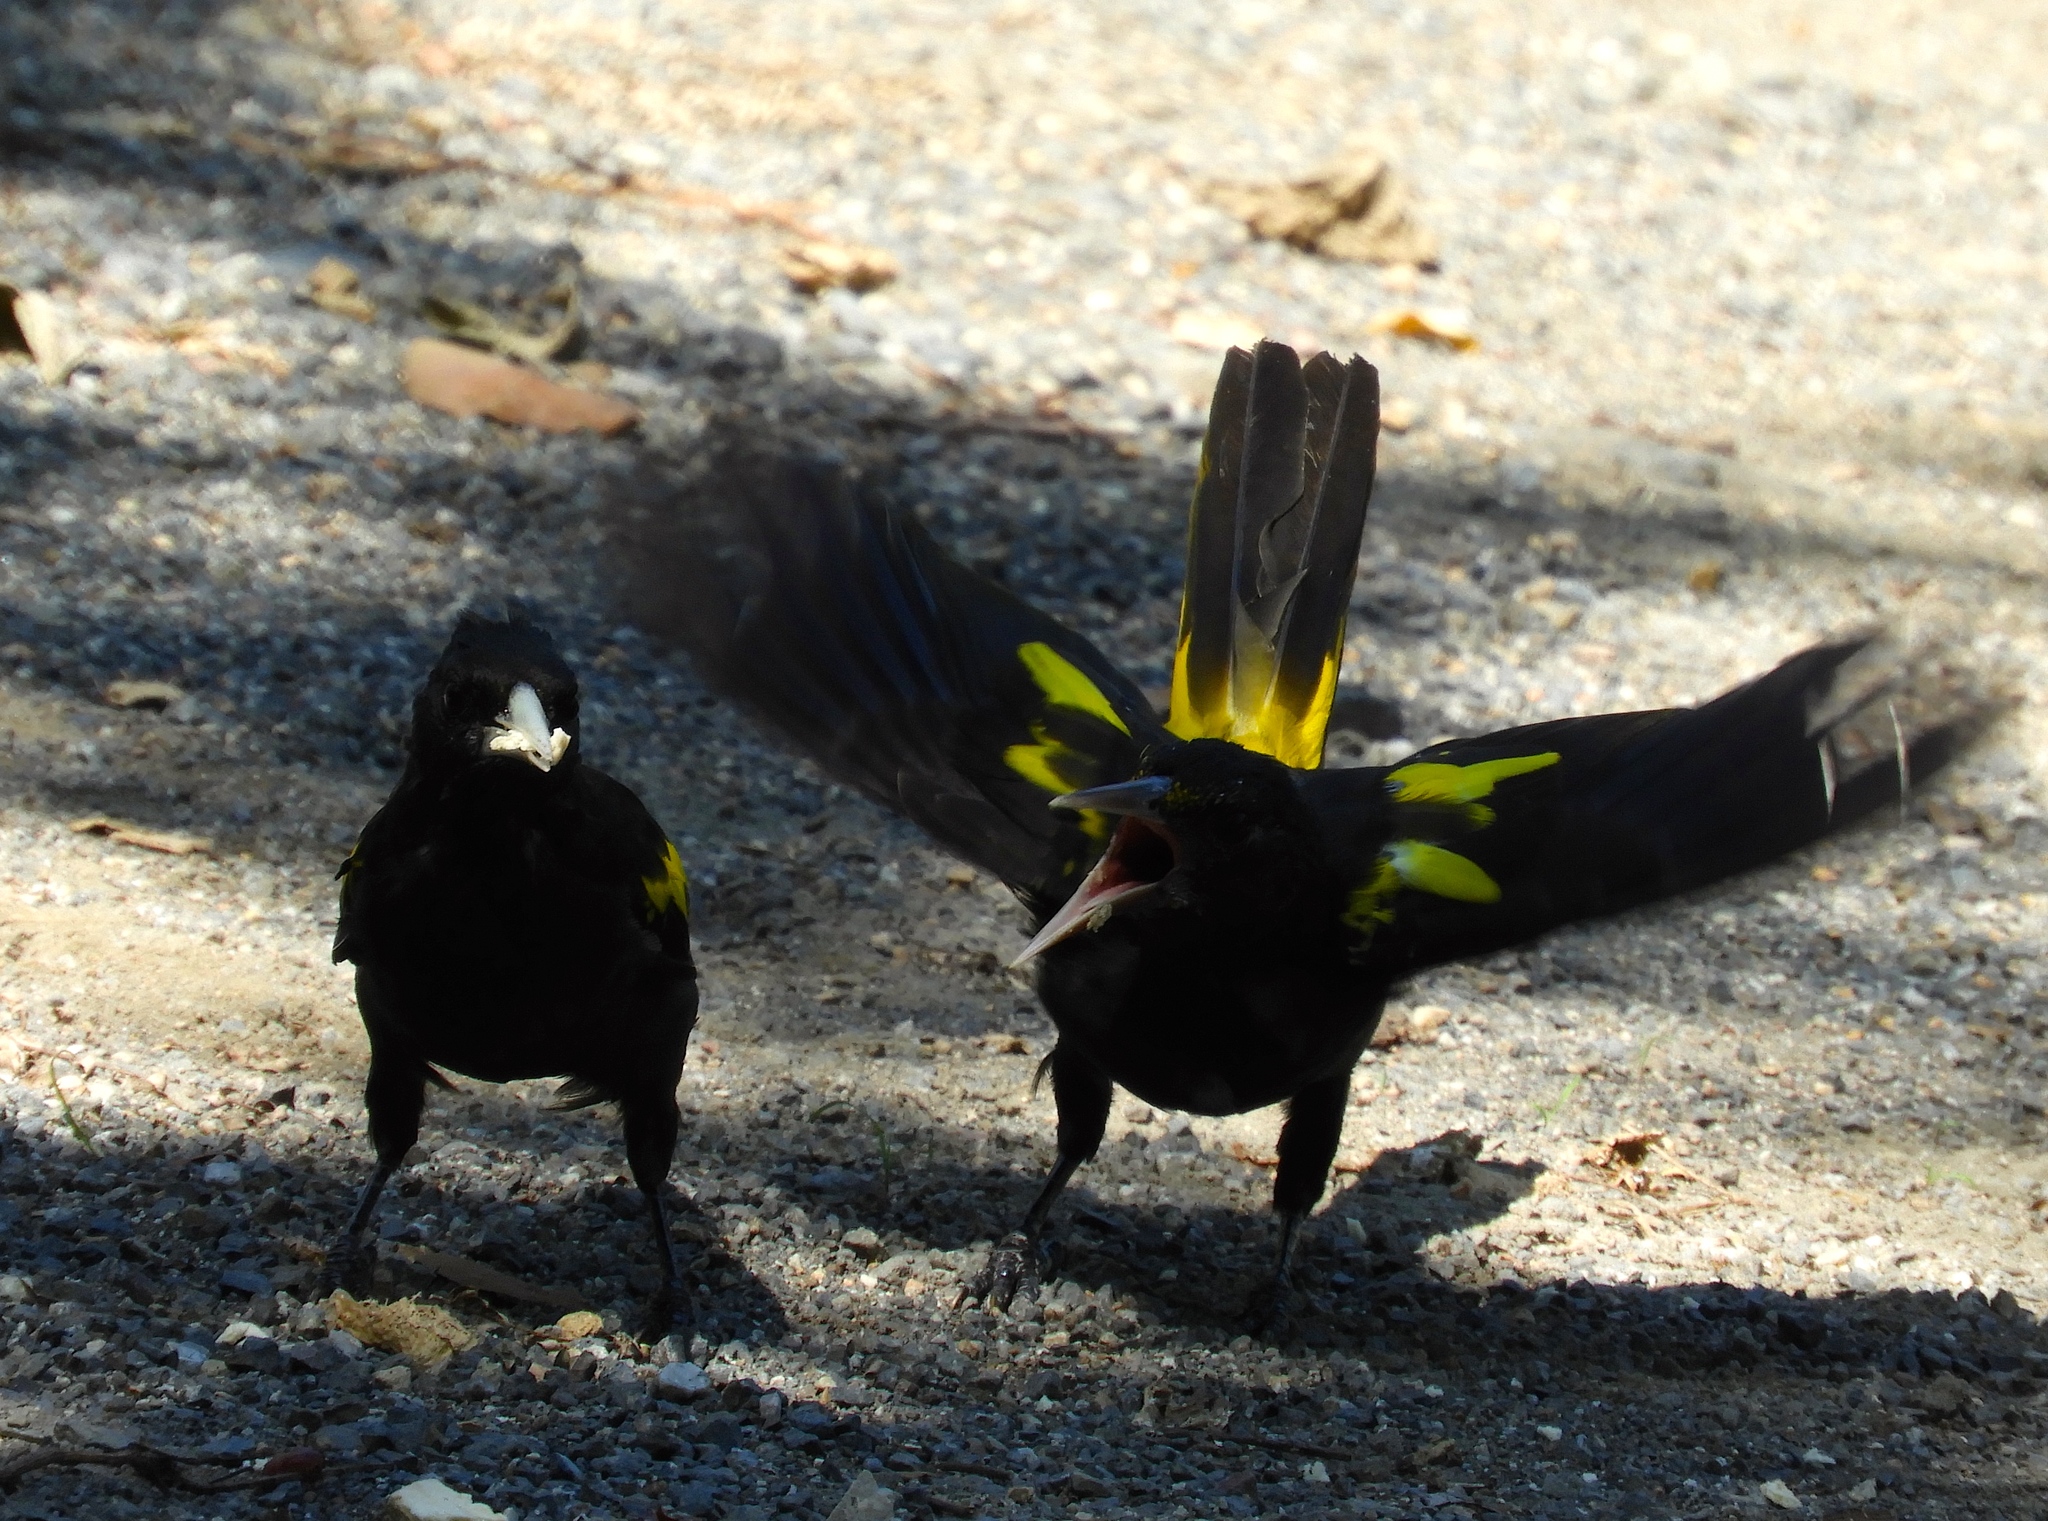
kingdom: Animalia
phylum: Chordata
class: Aves
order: Passeriformes
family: Icteridae
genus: Cacicus
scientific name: Cacicus melanicterus
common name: Yellow-winged cacique
